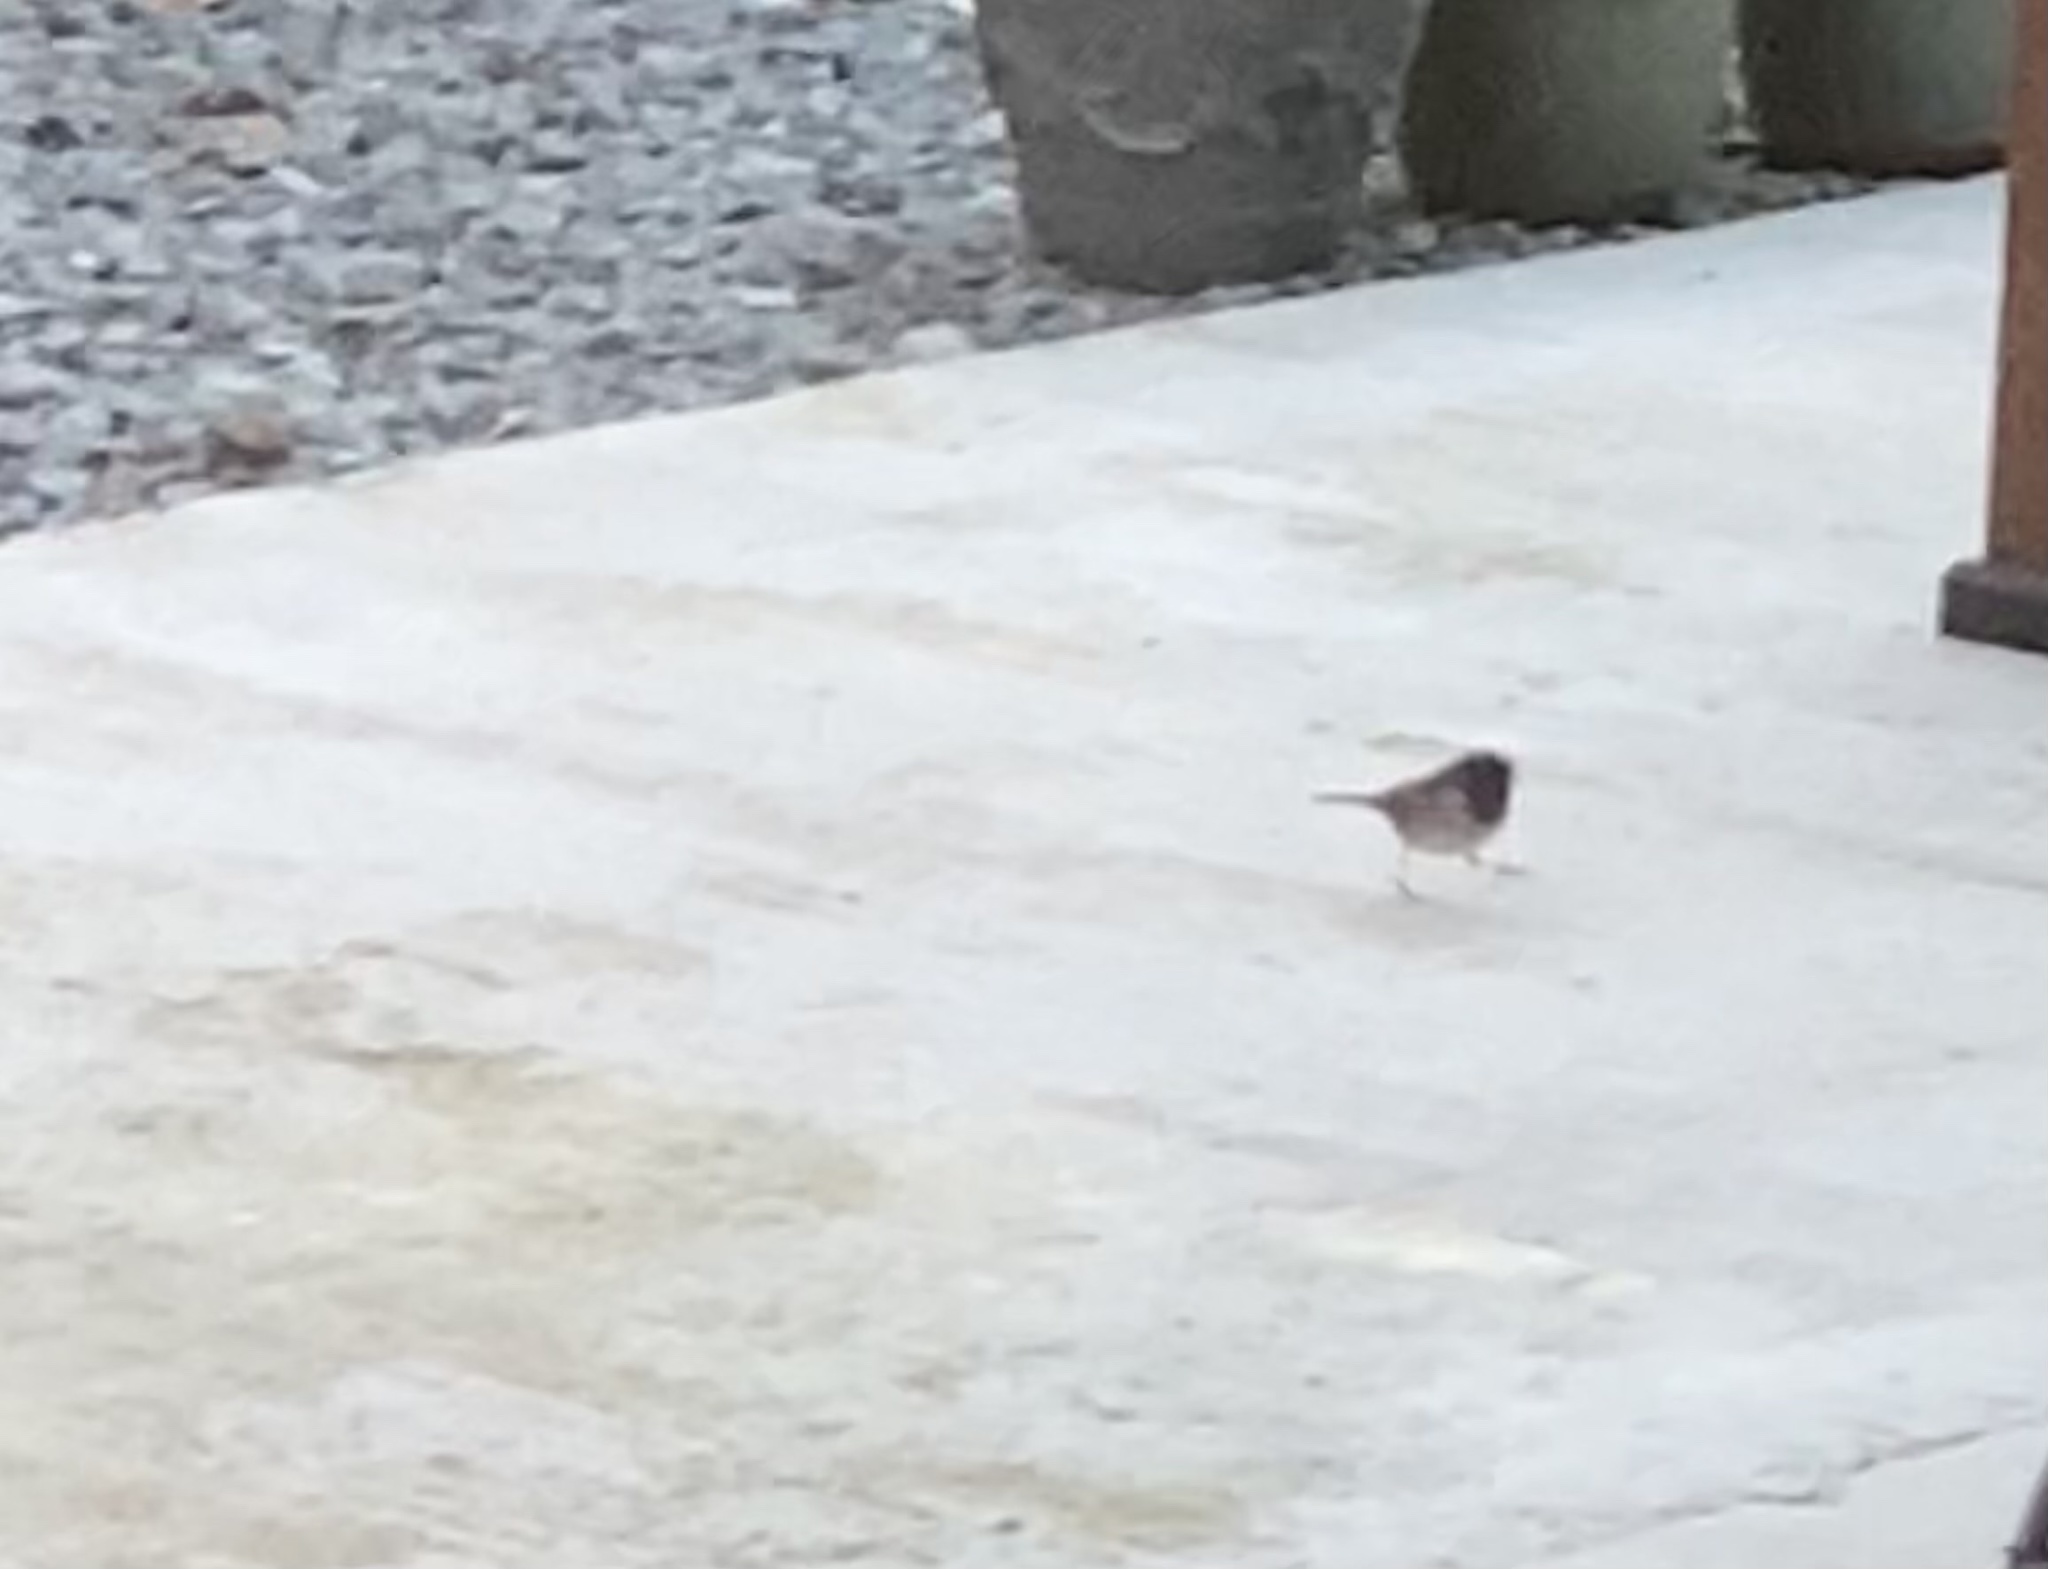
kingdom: Animalia
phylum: Chordata
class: Aves
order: Passeriformes
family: Passerellidae
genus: Junco
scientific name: Junco hyemalis
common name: Dark-eyed junco
